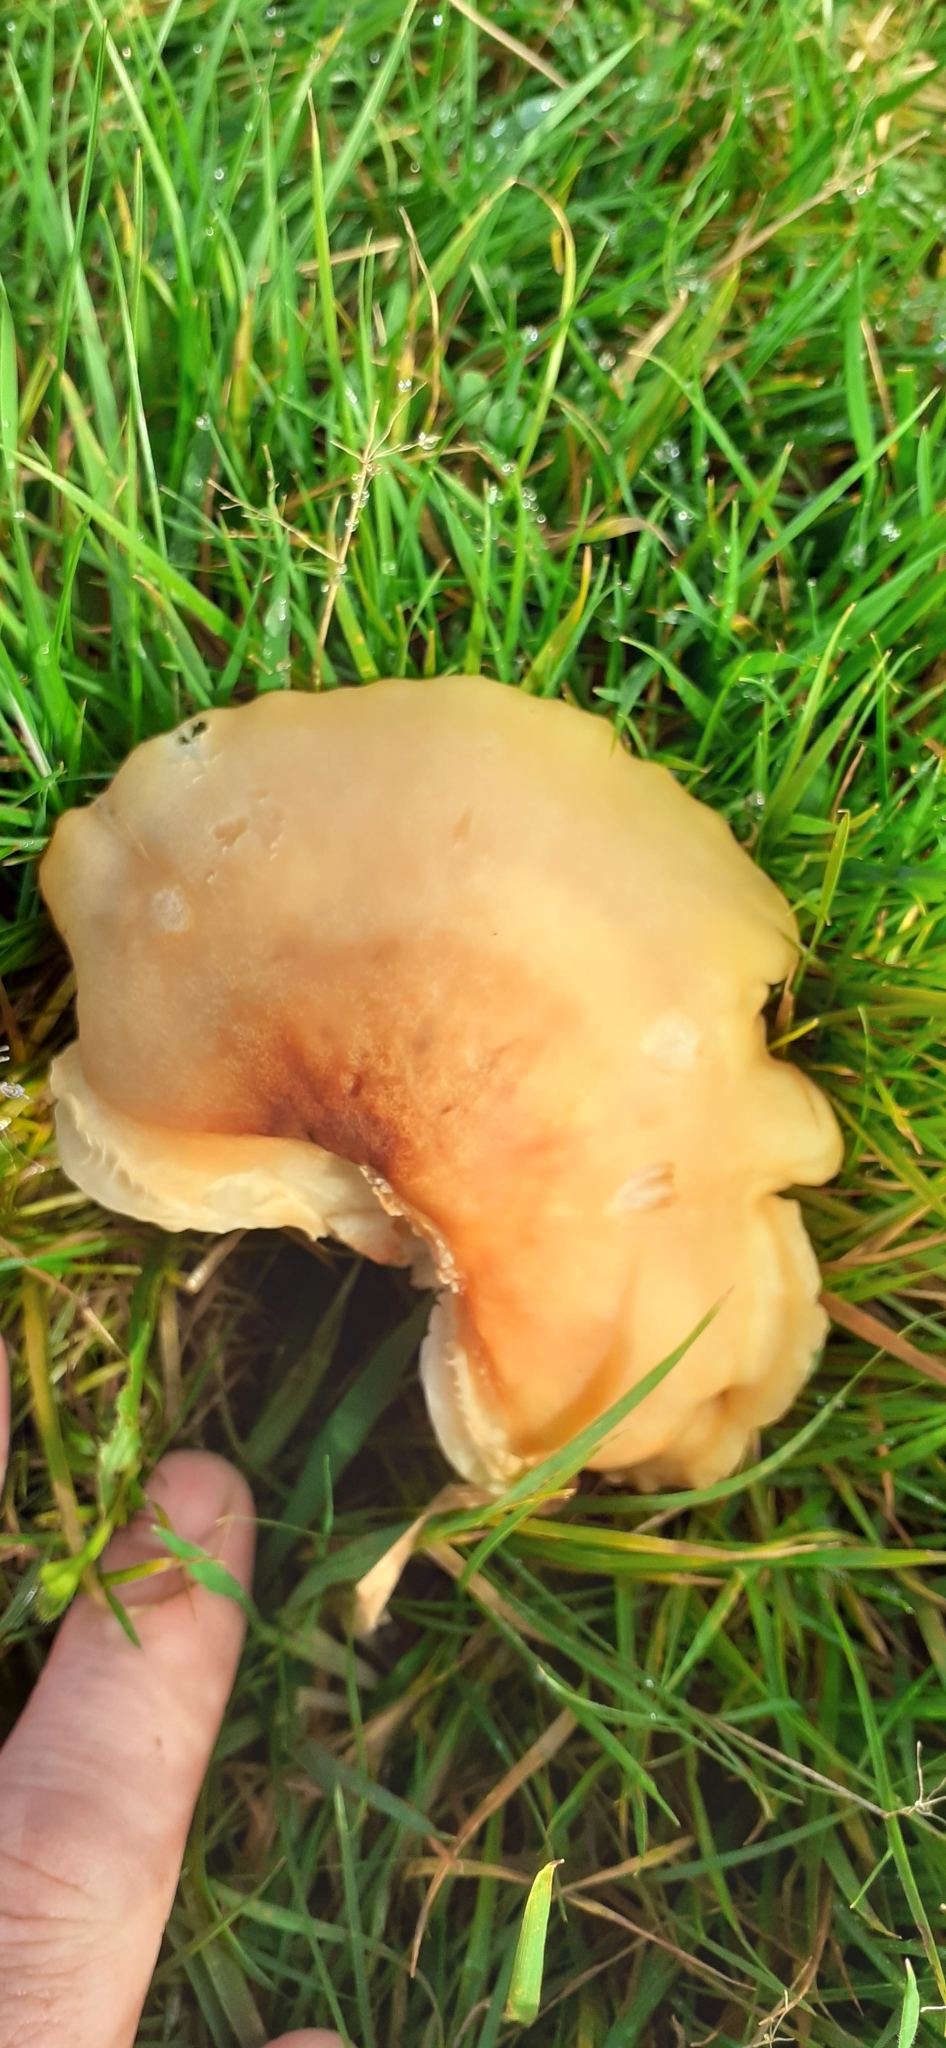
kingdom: Fungi
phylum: Basidiomycota
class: Agaricomycetes
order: Agaricales
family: Hygrophoraceae
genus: Cuphophyllus
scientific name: Cuphophyllus pratensis
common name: Meadow waxcap
